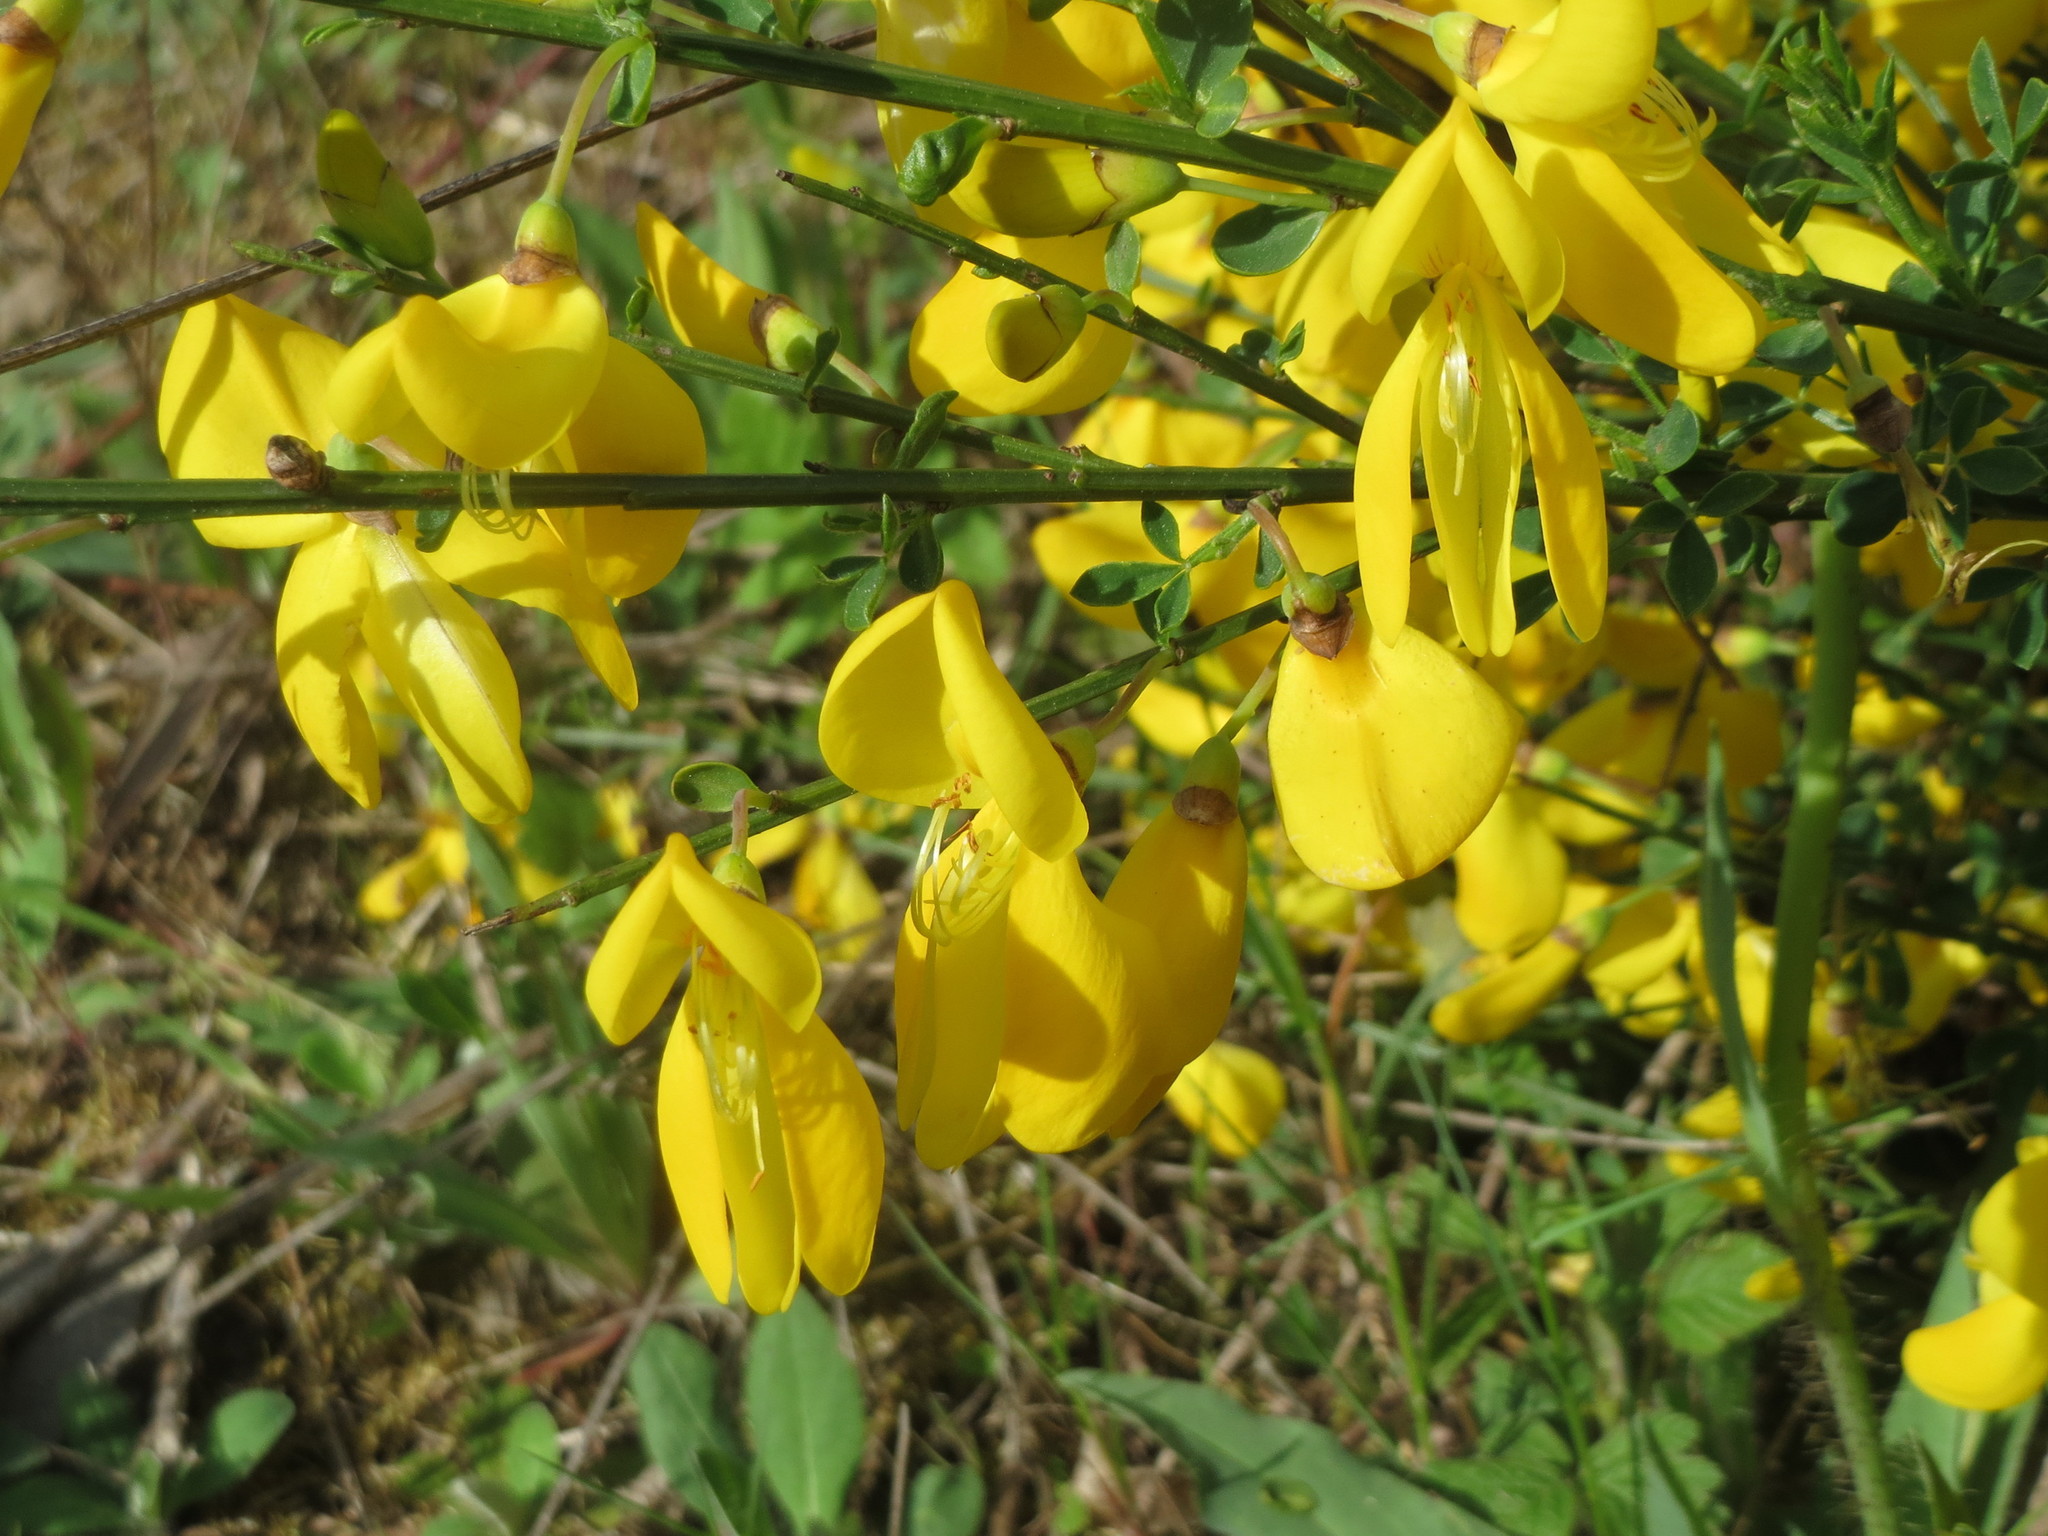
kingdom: Plantae
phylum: Tracheophyta
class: Magnoliopsida
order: Fabales
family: Fabaceae
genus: Cytisus
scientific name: Cytisus scoparius
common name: Scotch broom
